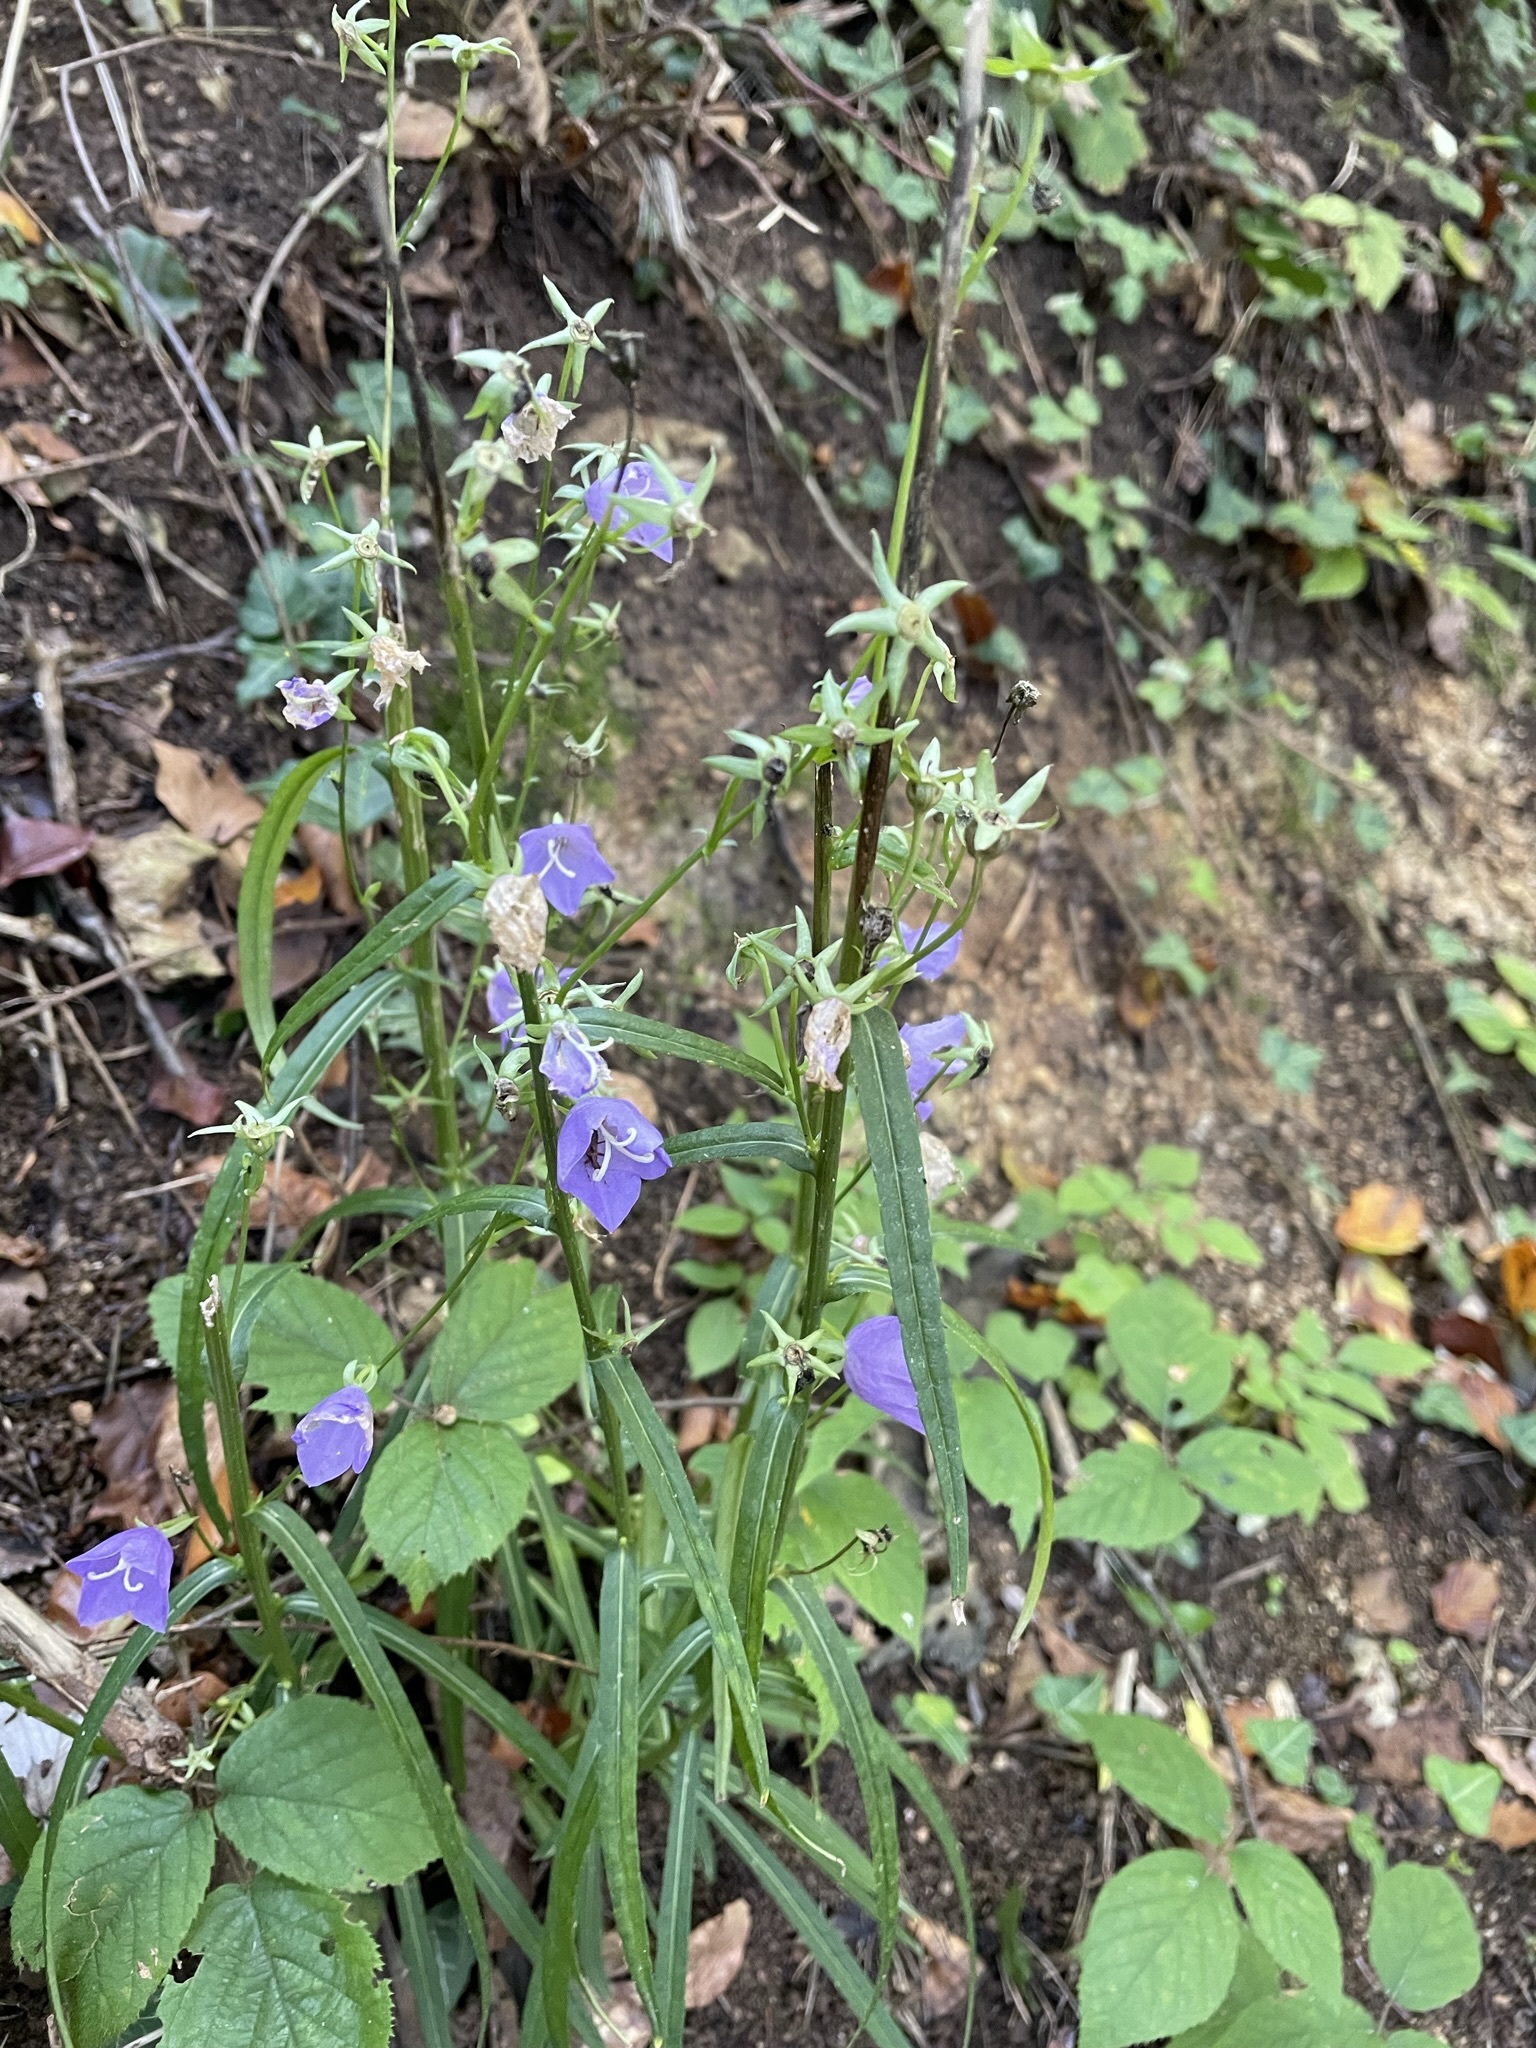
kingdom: Plantae
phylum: Tracheophyta
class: Magnoliopsida
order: Asterales
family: Campanulaceae
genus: Campanula
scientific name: Campanula persicifolia
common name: Peach-leaved bellflower
